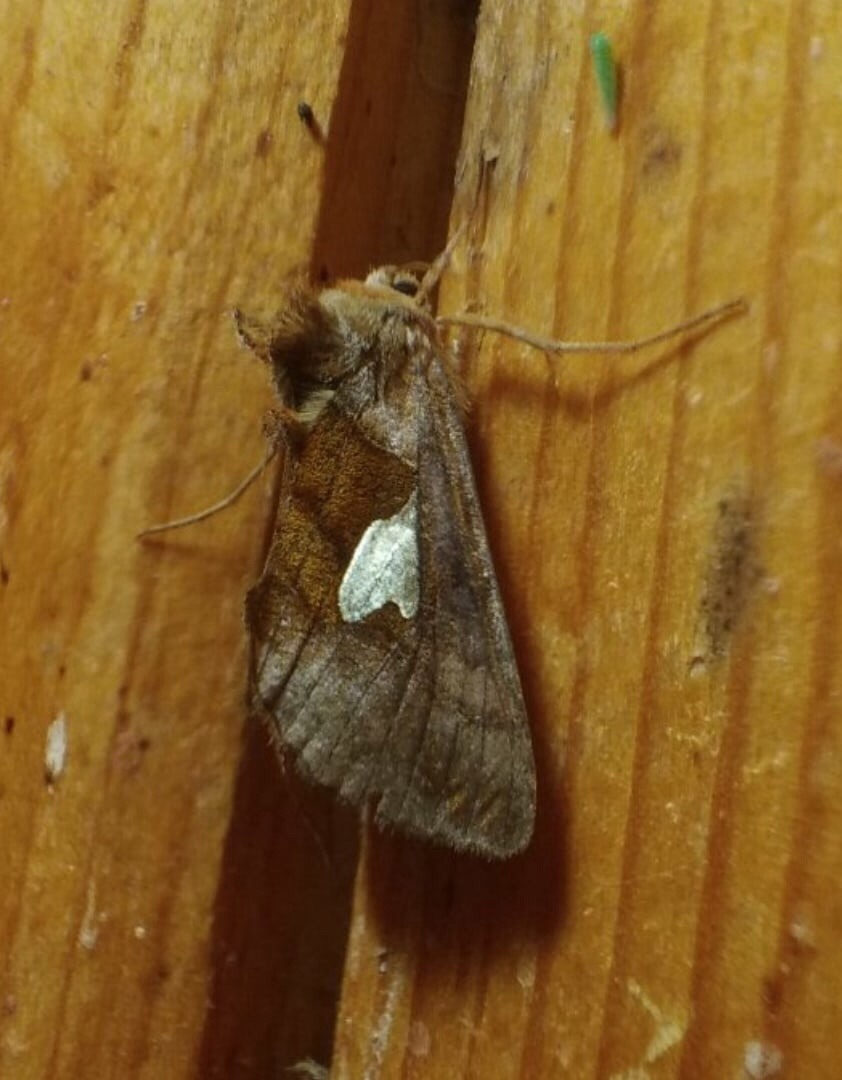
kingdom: Animalia
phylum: Arthropoda
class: Insecta
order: Lepidoptera
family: Noctuidae
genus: Autographa
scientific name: Autographa bractea
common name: Gold spangle
